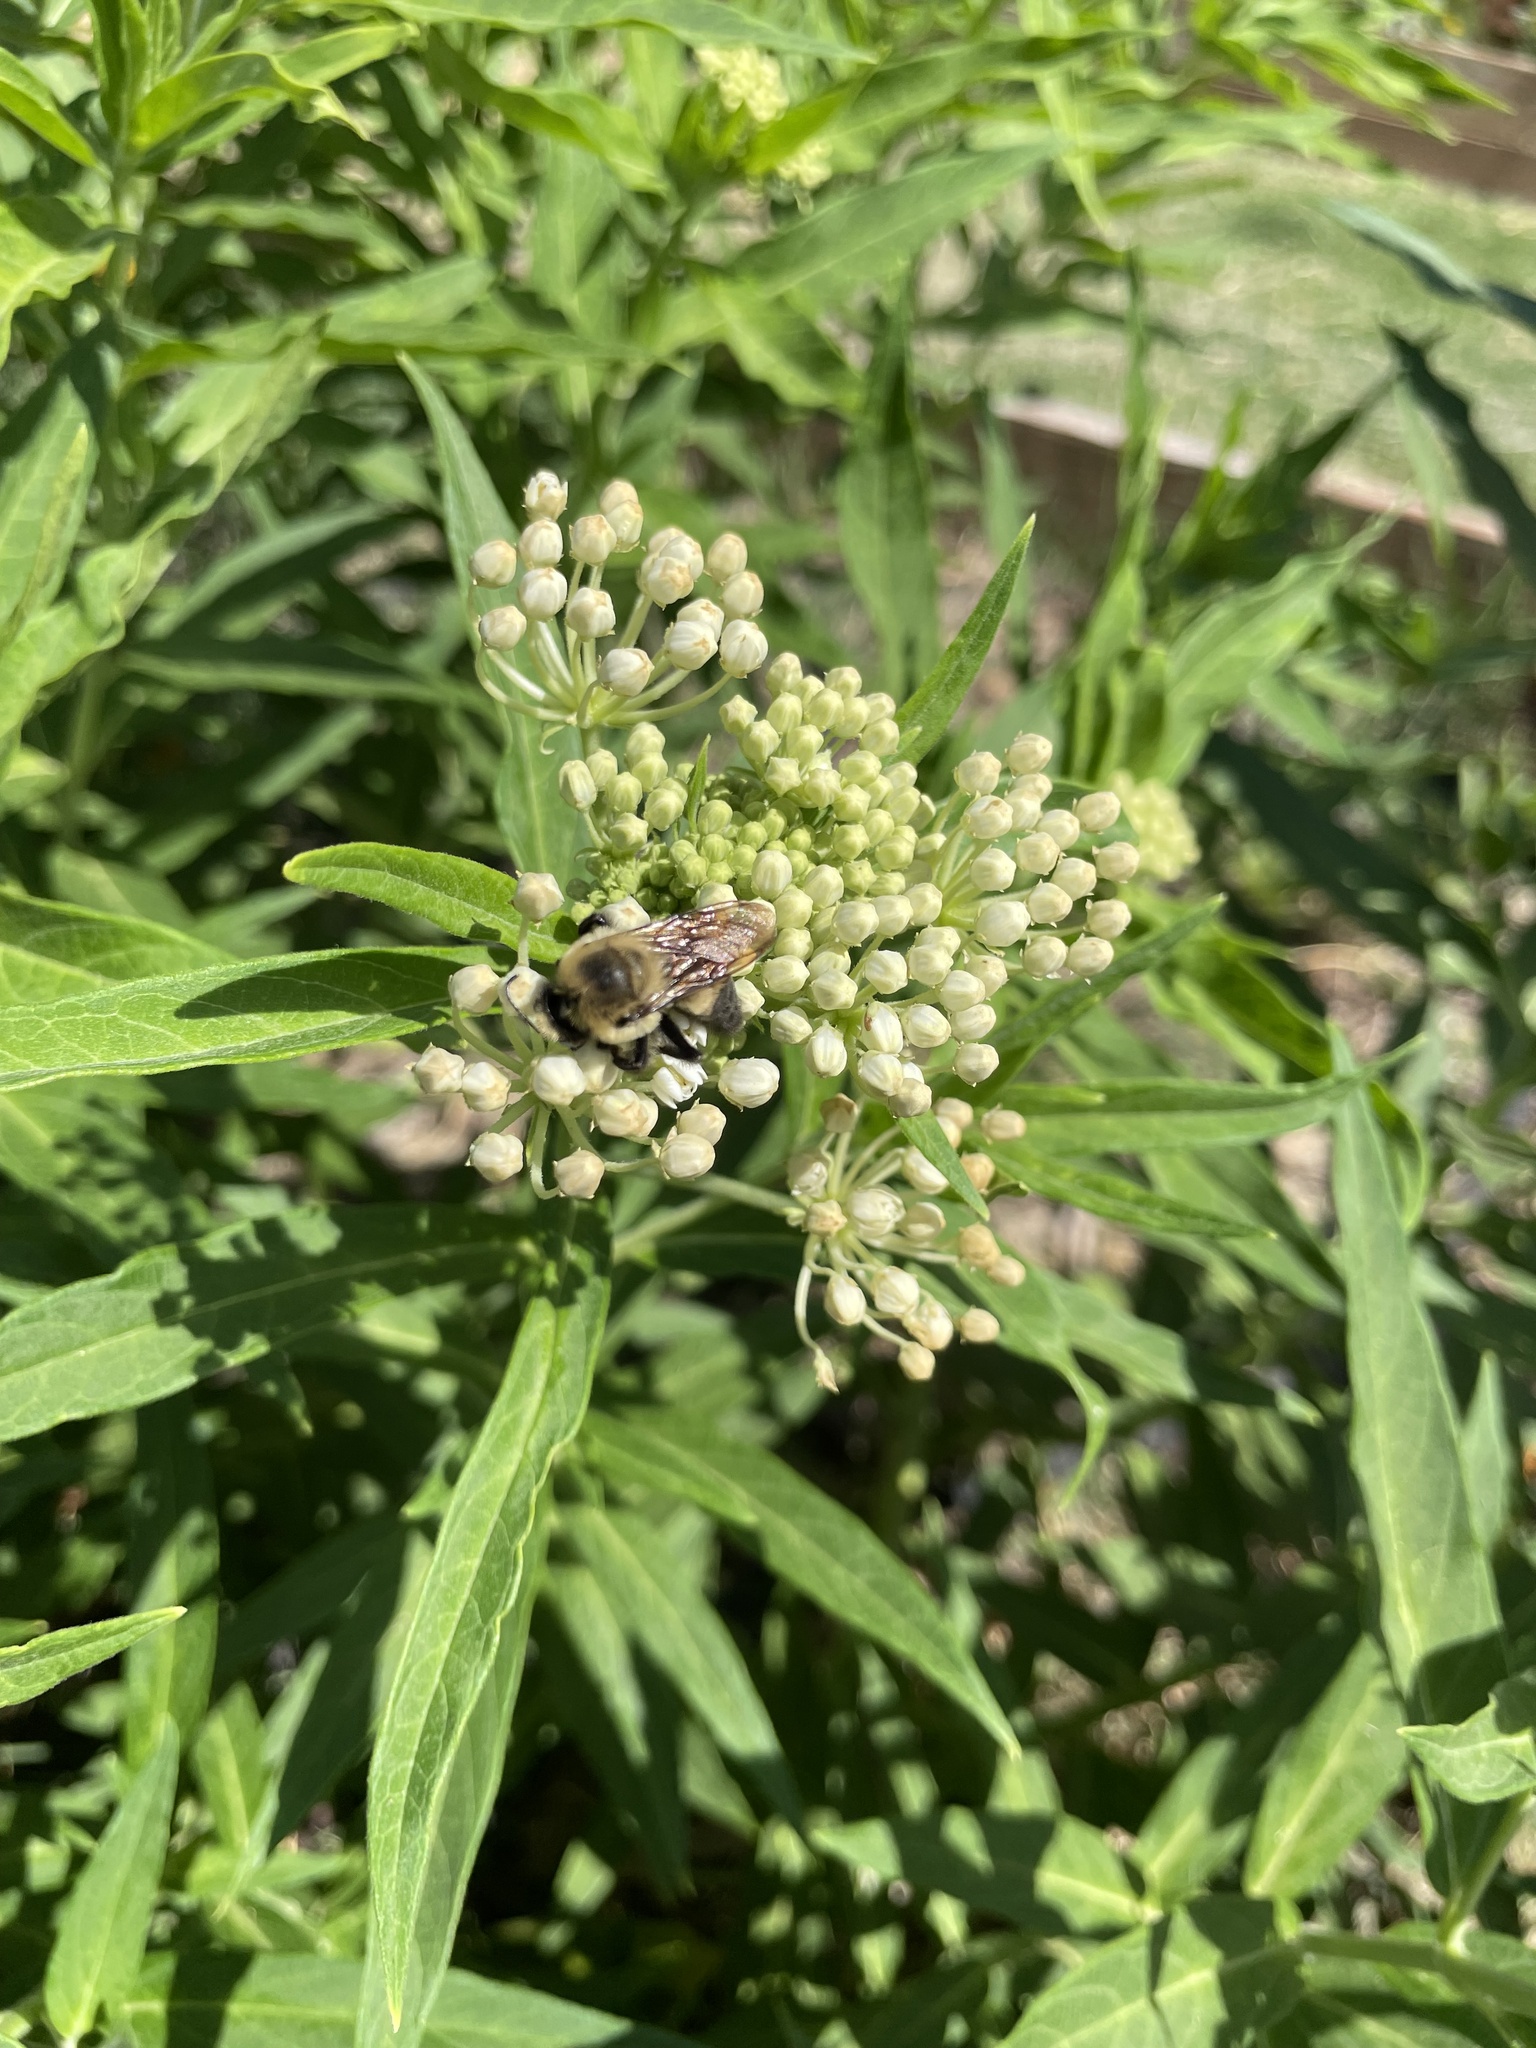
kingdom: Animalia
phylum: Arthropoda
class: Insecta
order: Hymenoptera
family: Apidae
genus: Bombus
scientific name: Bombus griseocollis
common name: Brown-belted bumble bee
